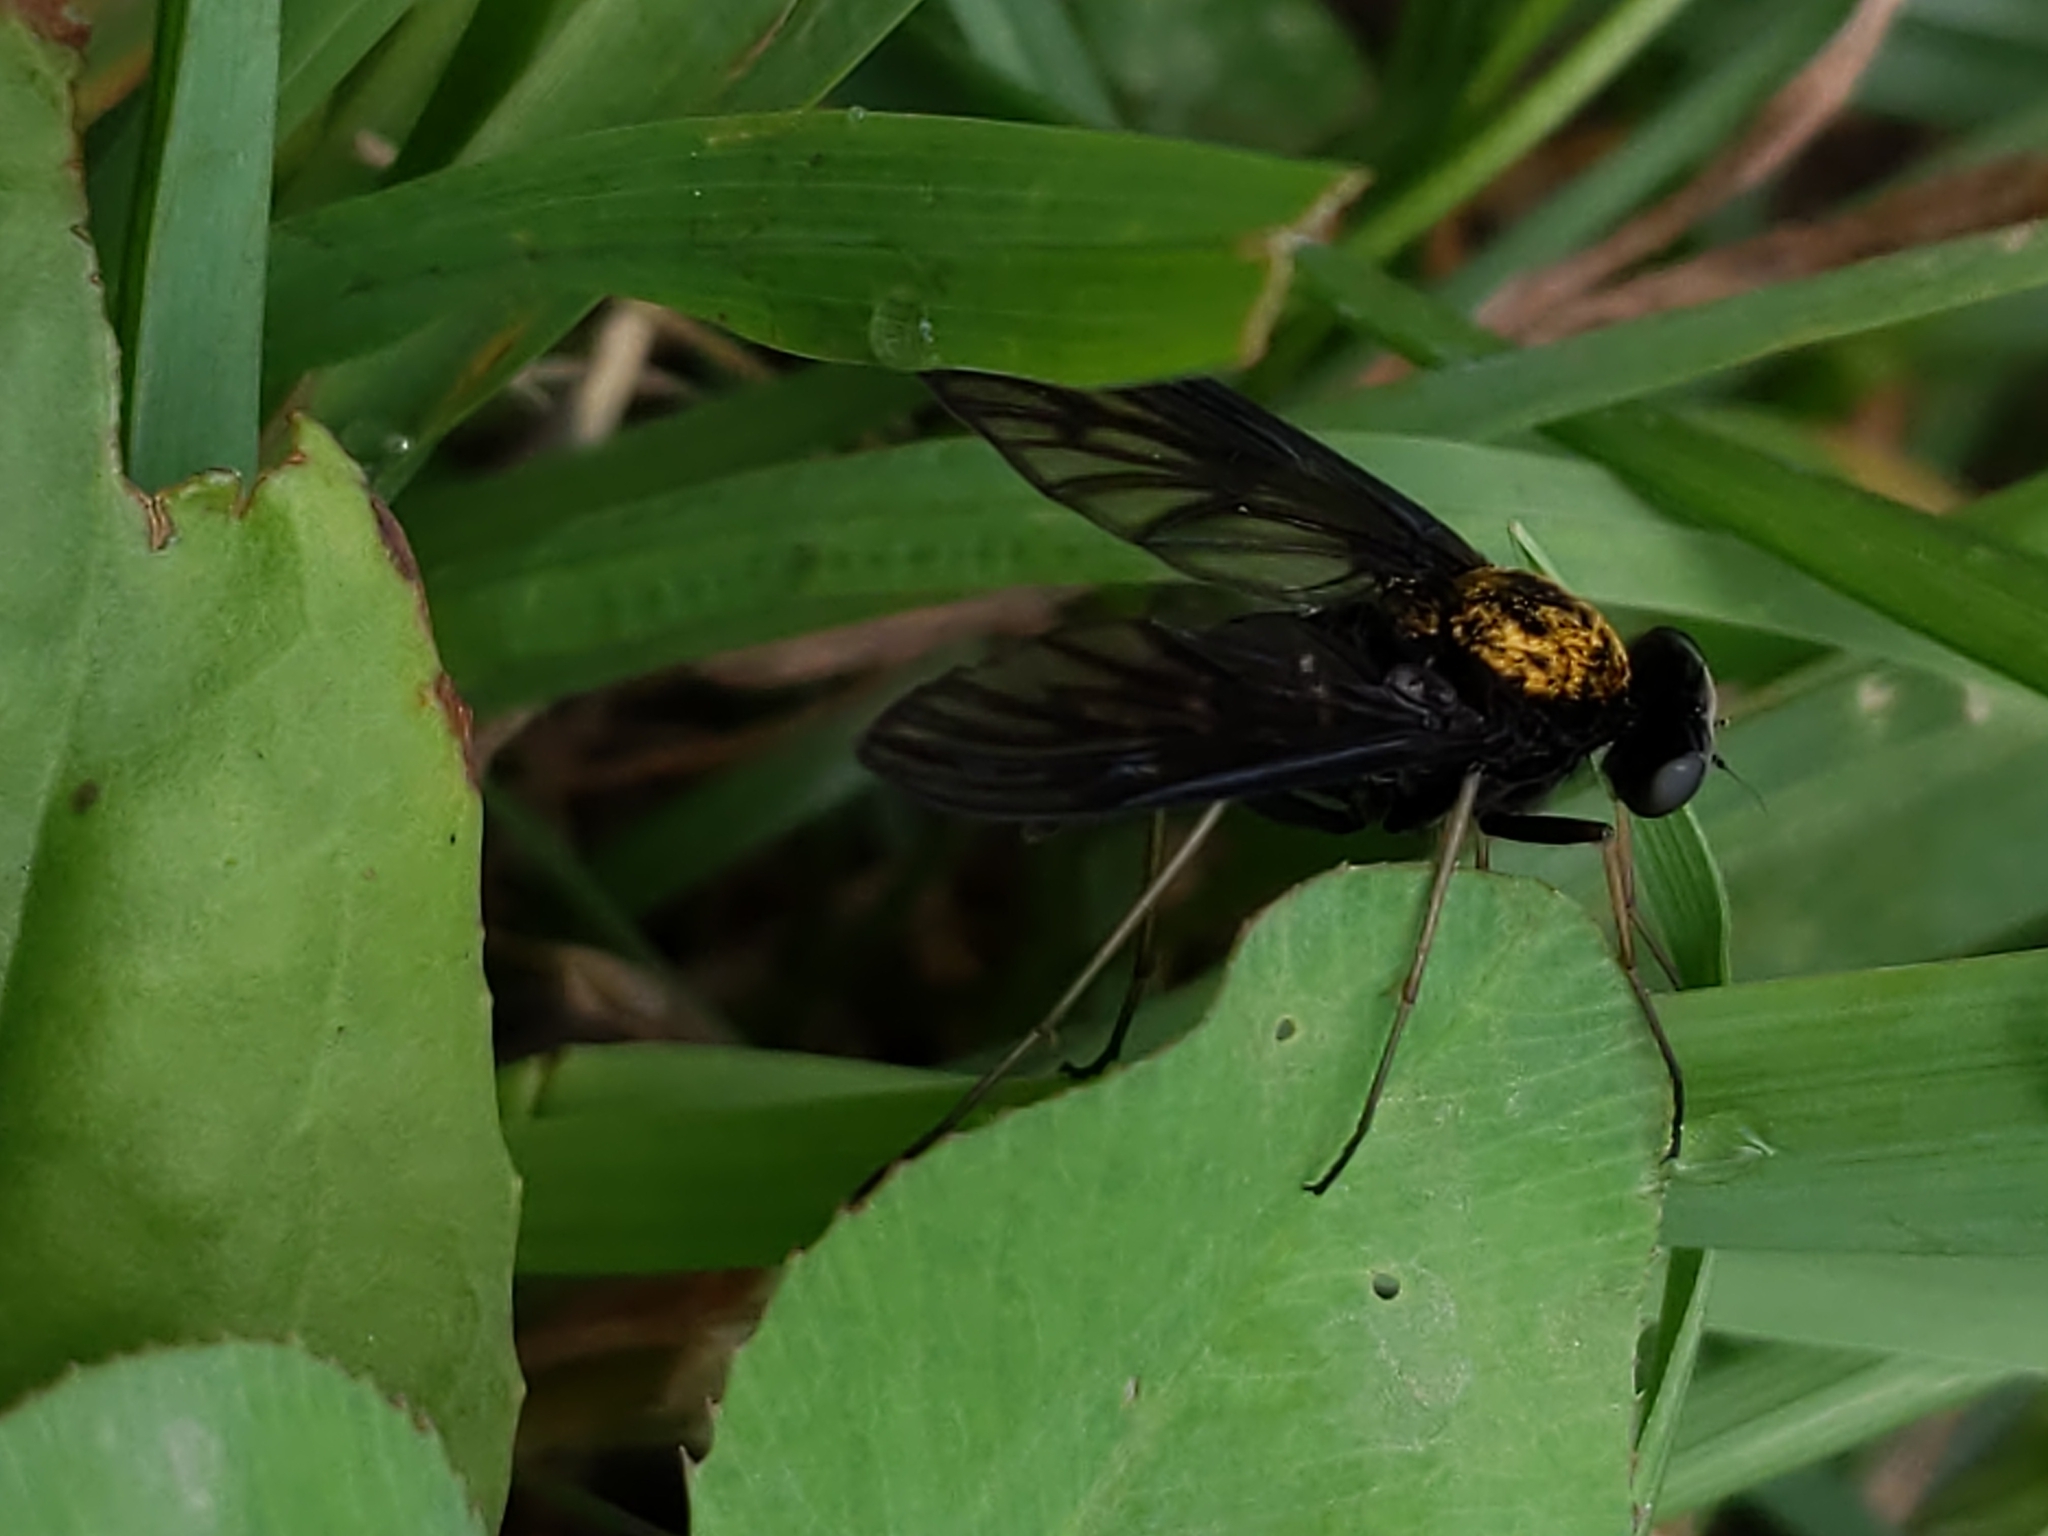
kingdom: Animalia
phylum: Arthropoda
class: Insecta
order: Diptera
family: Rhagionidae
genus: Chrysopilus
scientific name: Chrysopilus thoracicus
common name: Golden-backed snipe fly
